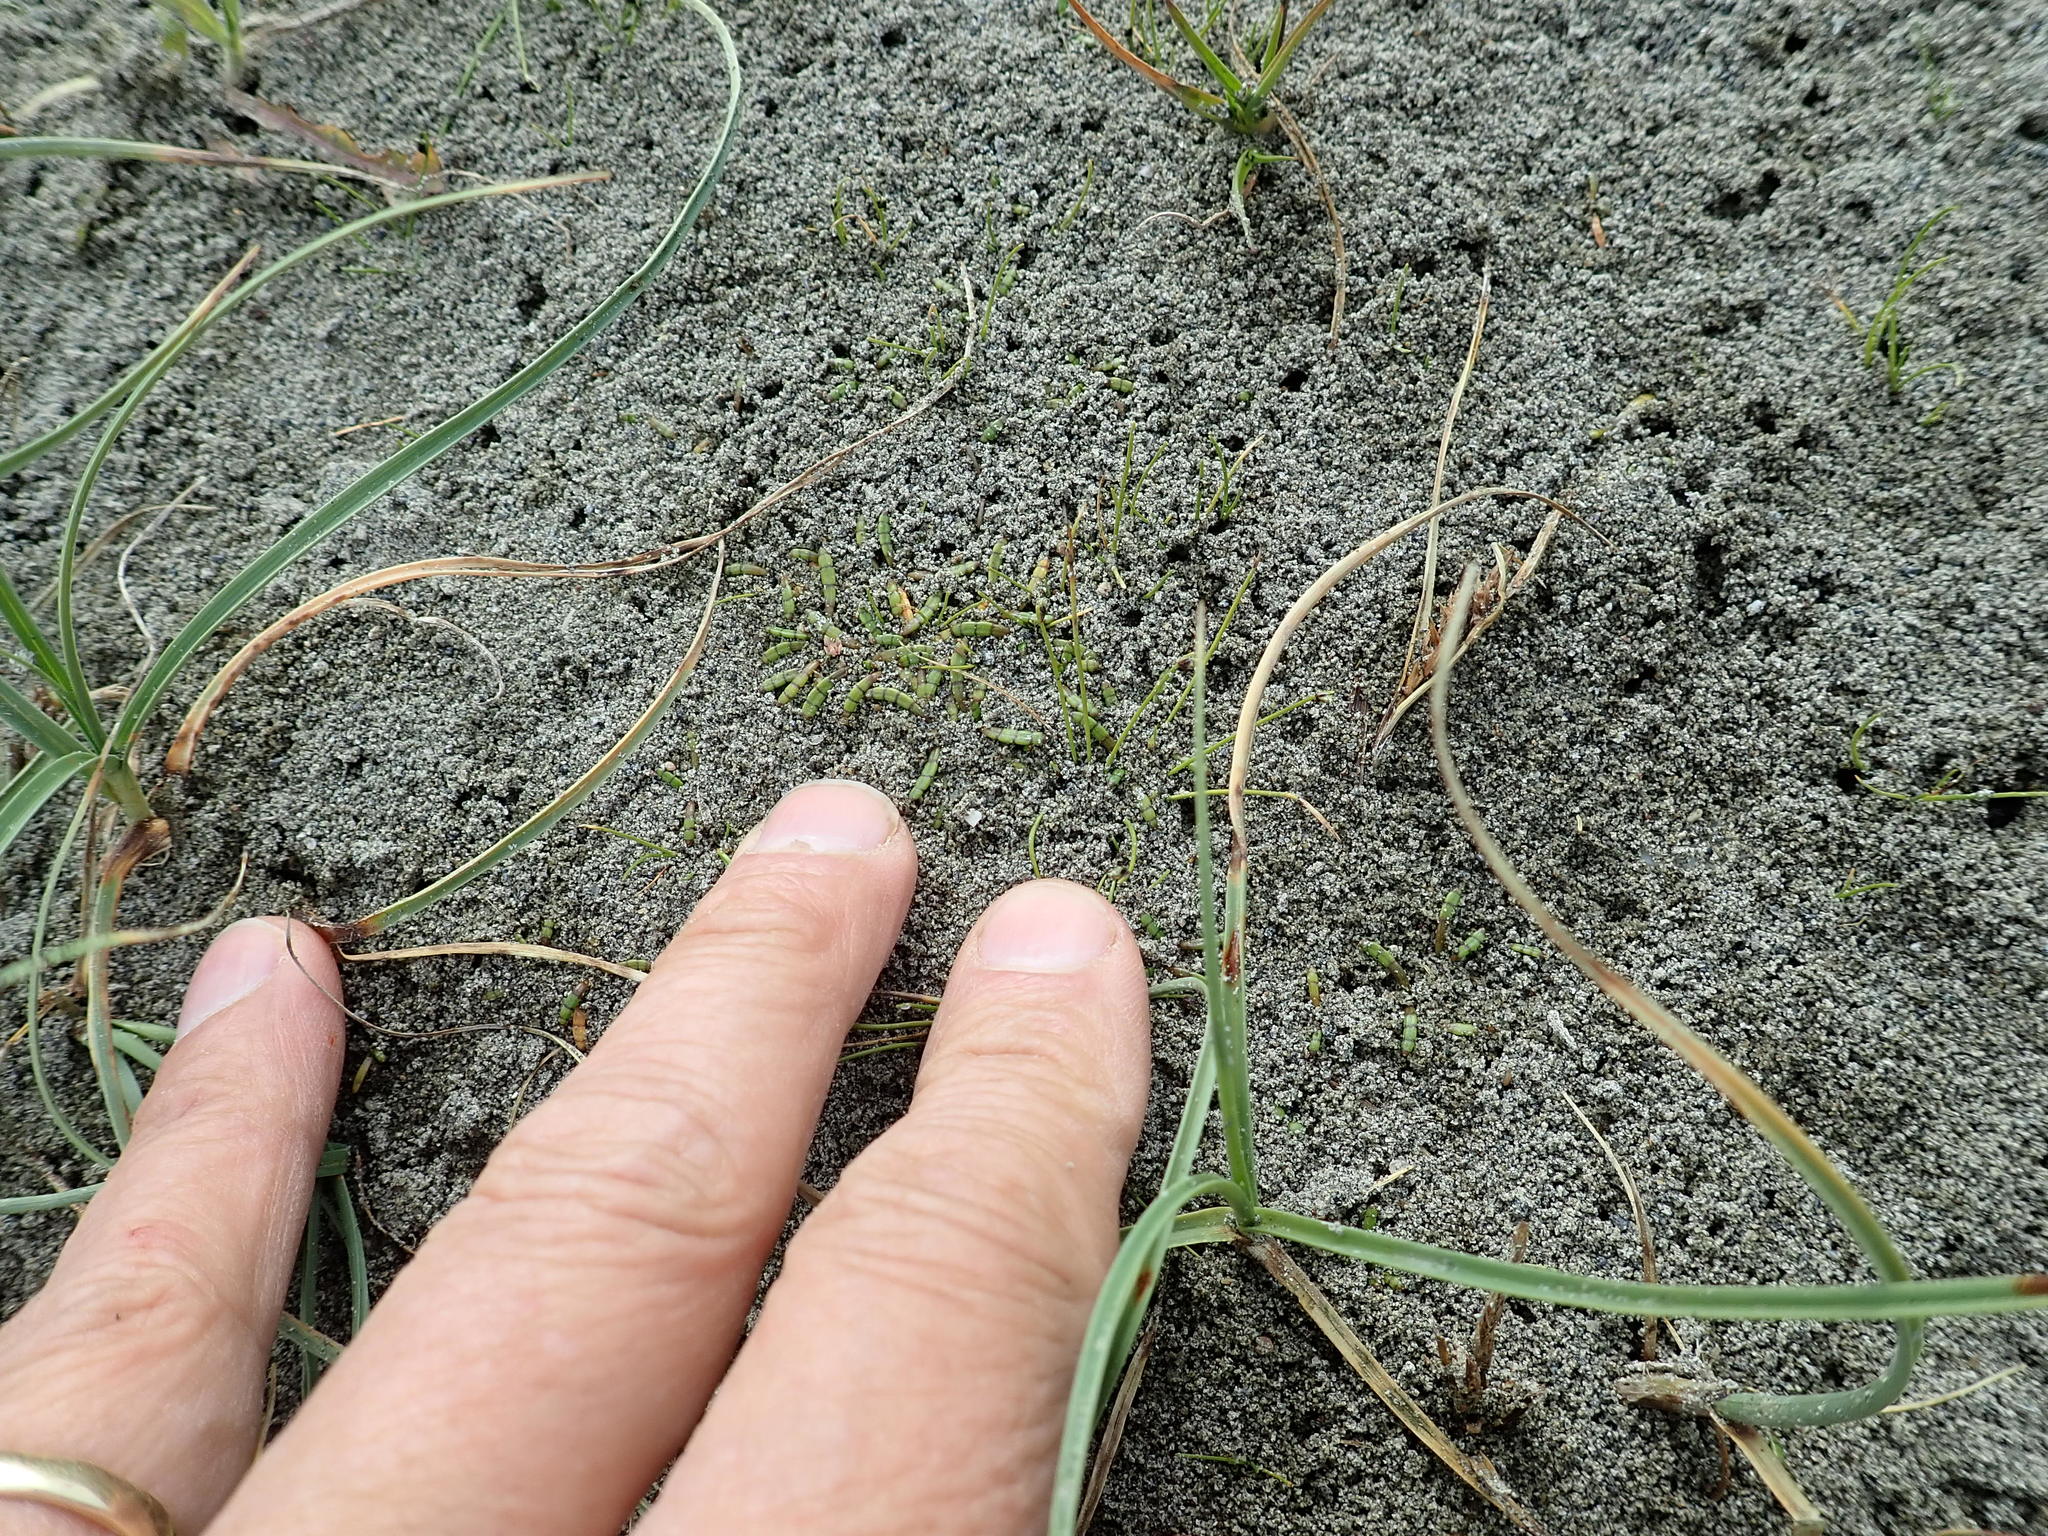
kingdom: Plantae
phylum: Tracheophyta
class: Magnoliopsida
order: Apiales
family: Apiaceae
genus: Lilaeopsis
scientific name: Lilaeopsis novae-zelandiae
